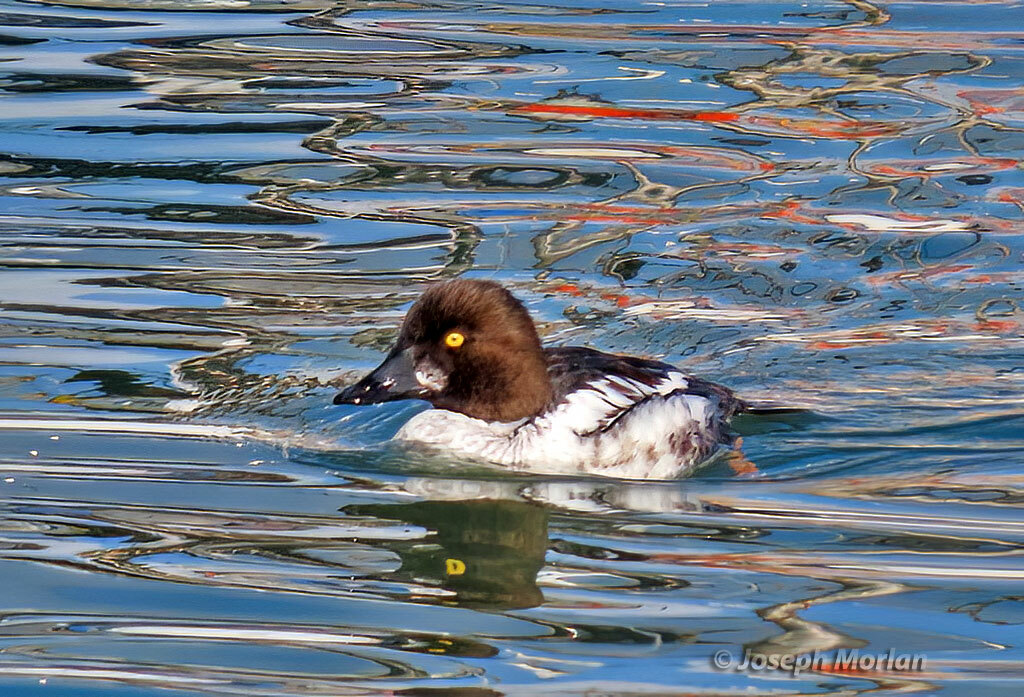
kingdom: Animalia
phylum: Chordata
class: Aves
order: Anseriformes
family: Anatidae
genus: Bucephala
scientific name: Bucephala clangula
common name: Common goldeneye
